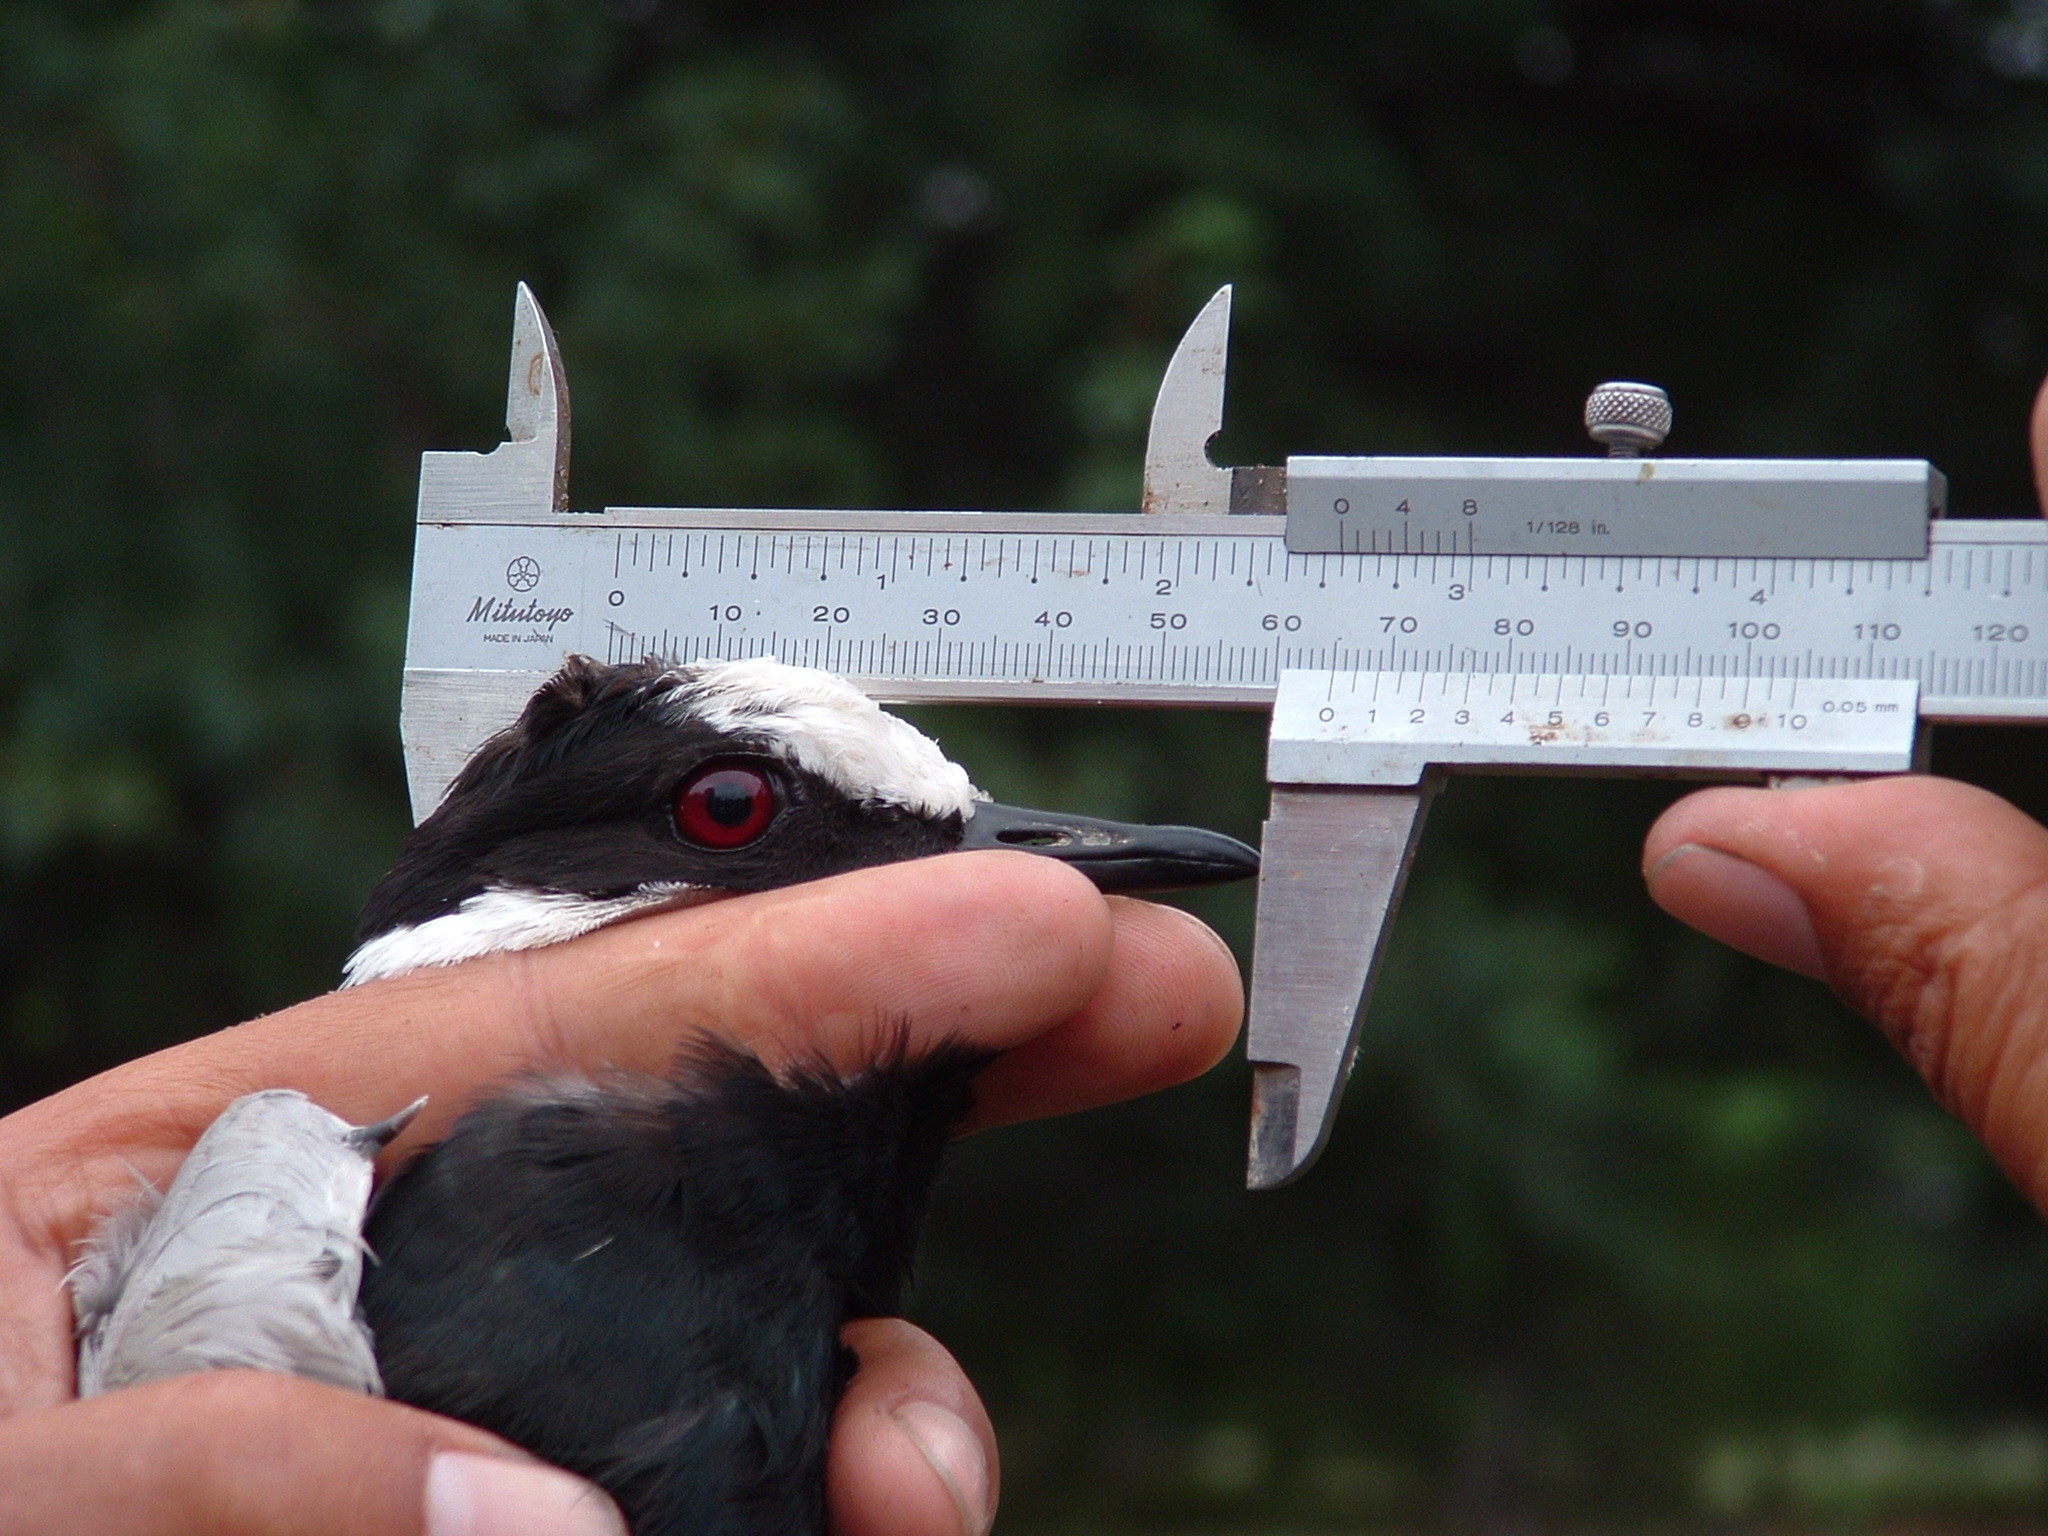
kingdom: Animalia
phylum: Chordata
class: Aves
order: Charadriiformes
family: Charadriidae
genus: Vanellus
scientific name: Vanellus armatus
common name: Blacksmith lapwing
